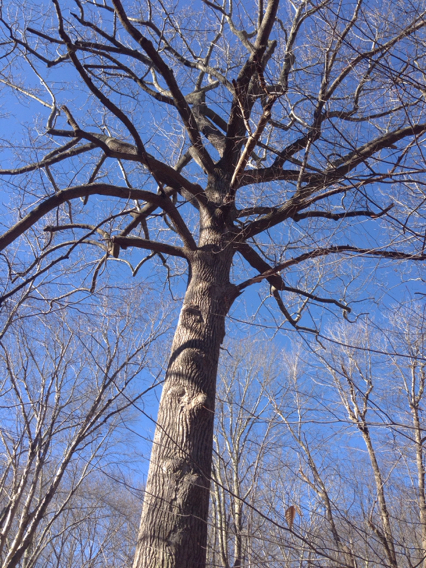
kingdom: Plantae
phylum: Tracheophyta
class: Magnoliopsida
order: Magnoliales
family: Magnoliaceae
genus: Liriodendron
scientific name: Liriodendron tulipifera
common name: Tulip tree
